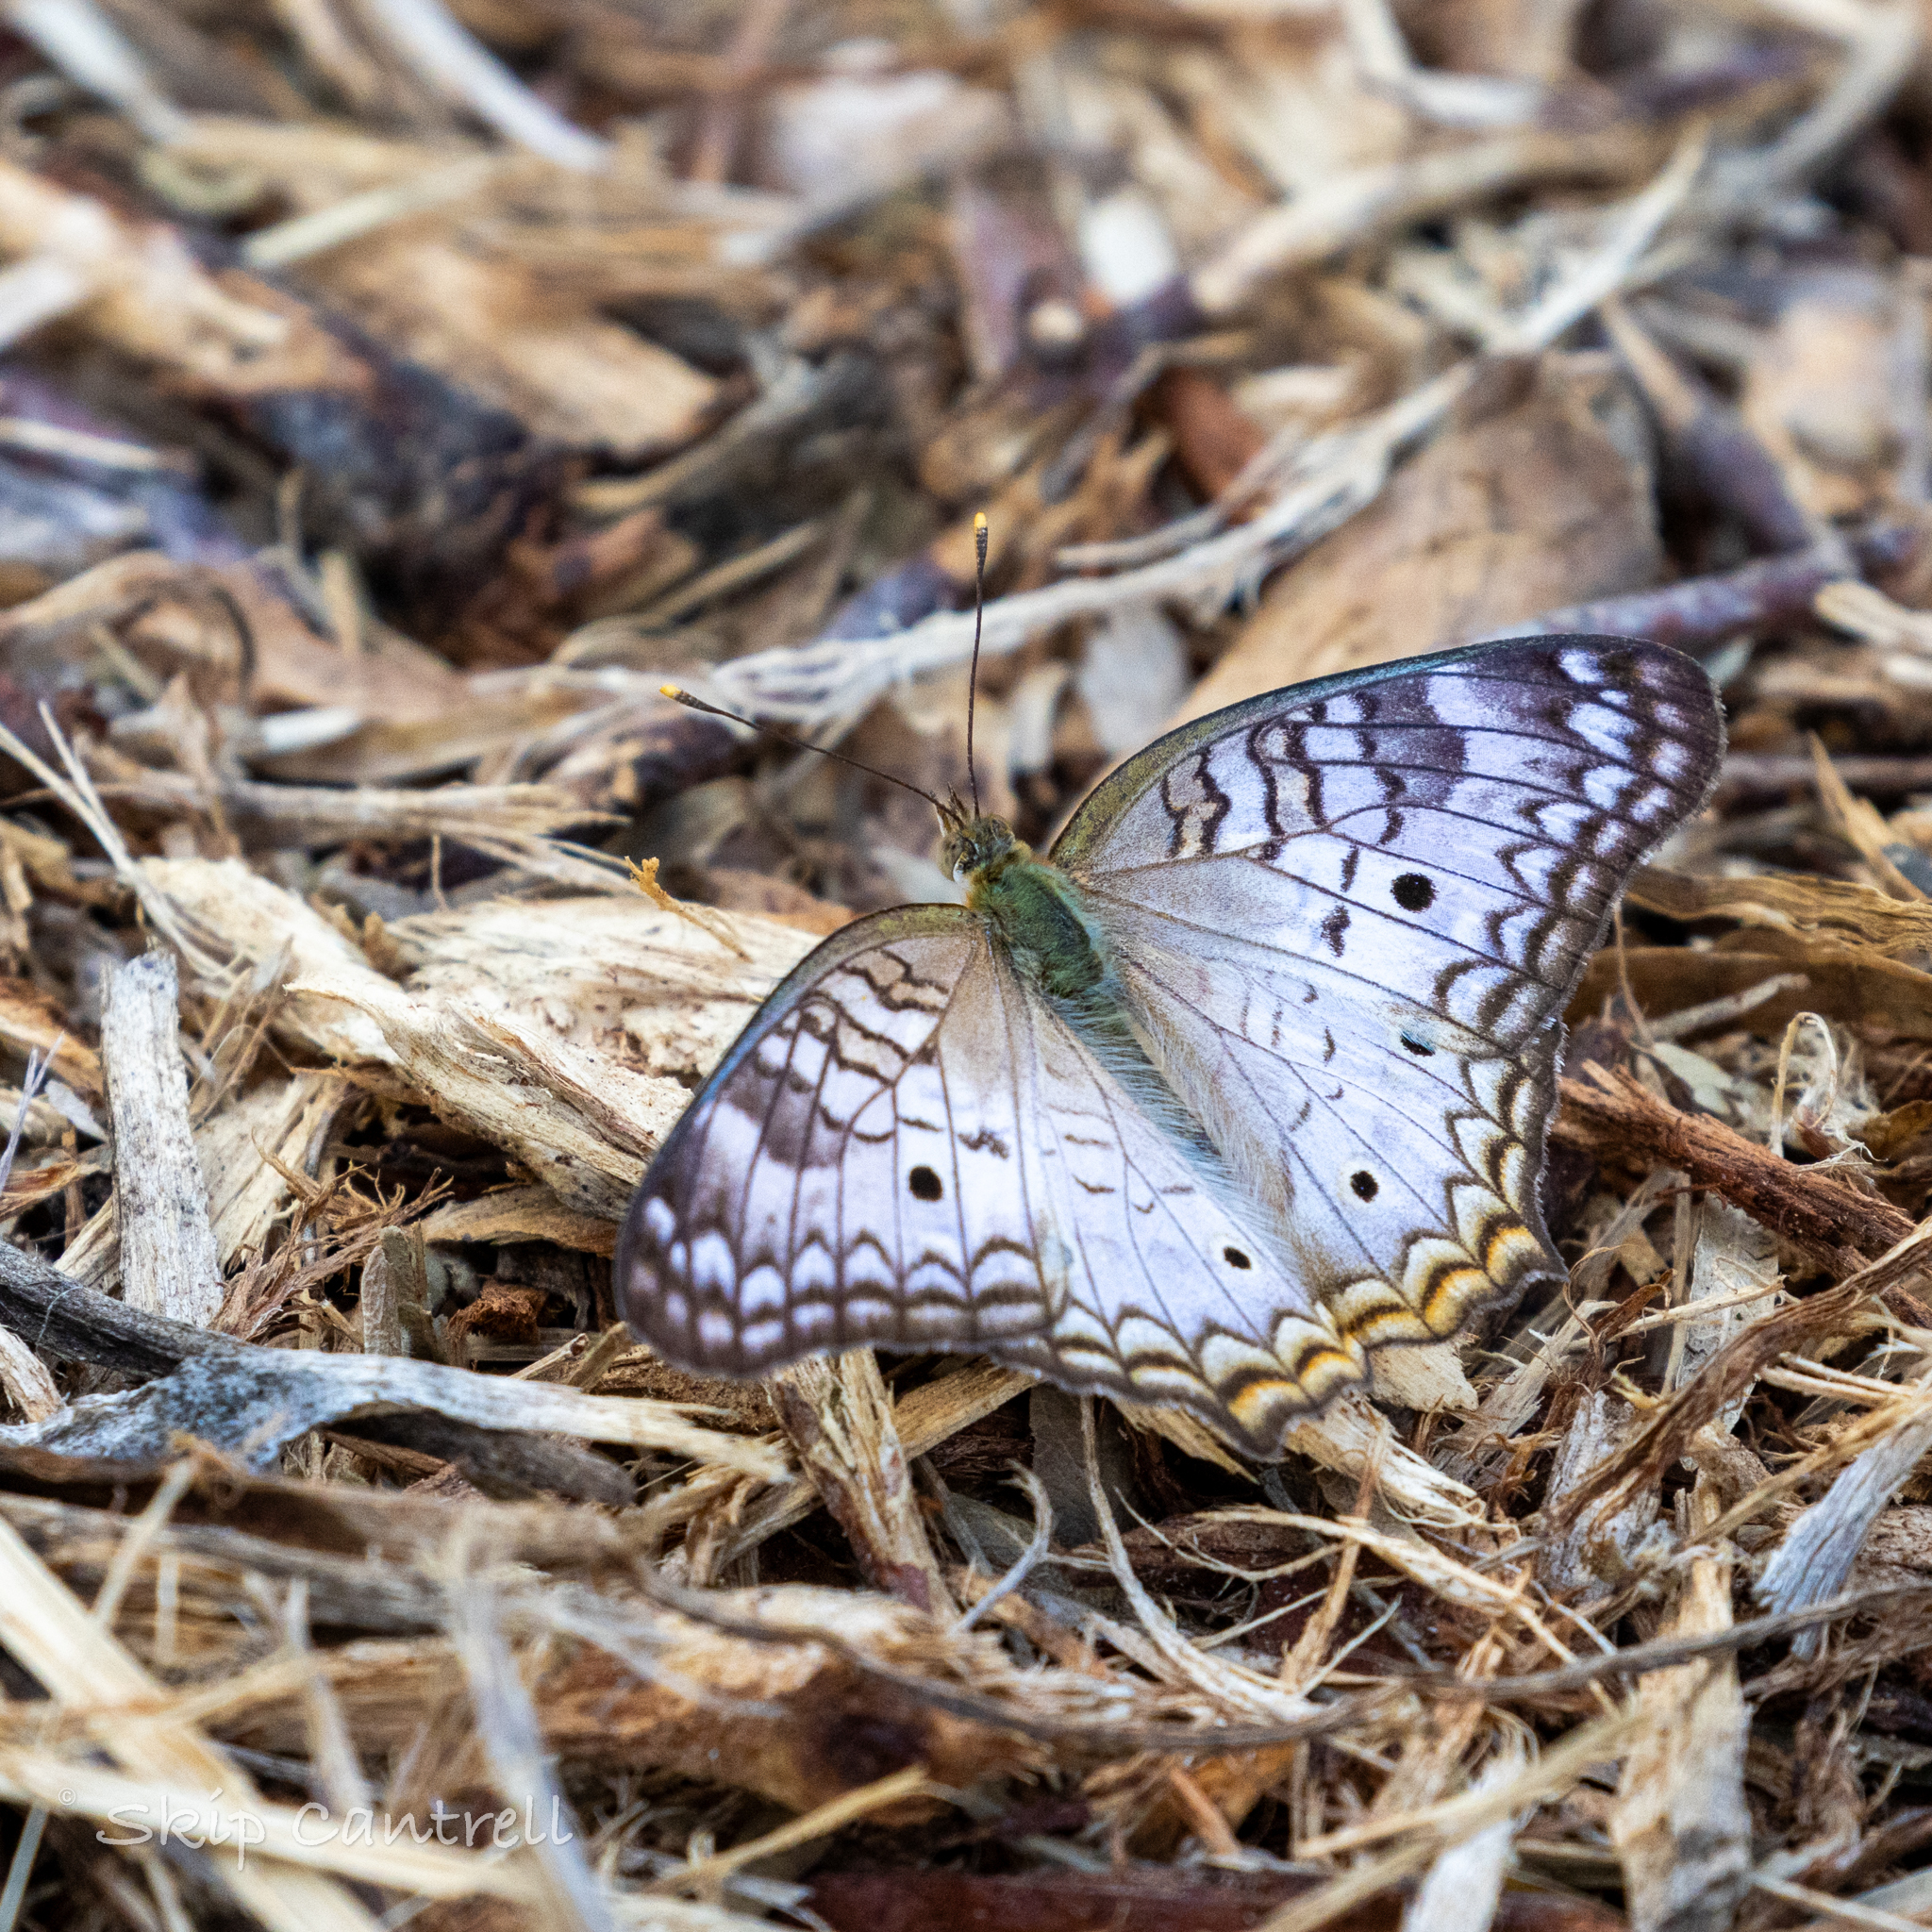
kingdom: Animalia
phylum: Arthropoda
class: Insecta
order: Lepidoptera
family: Nymphalidae
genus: Anartia
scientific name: Anartia jatrophae
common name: White peacock
